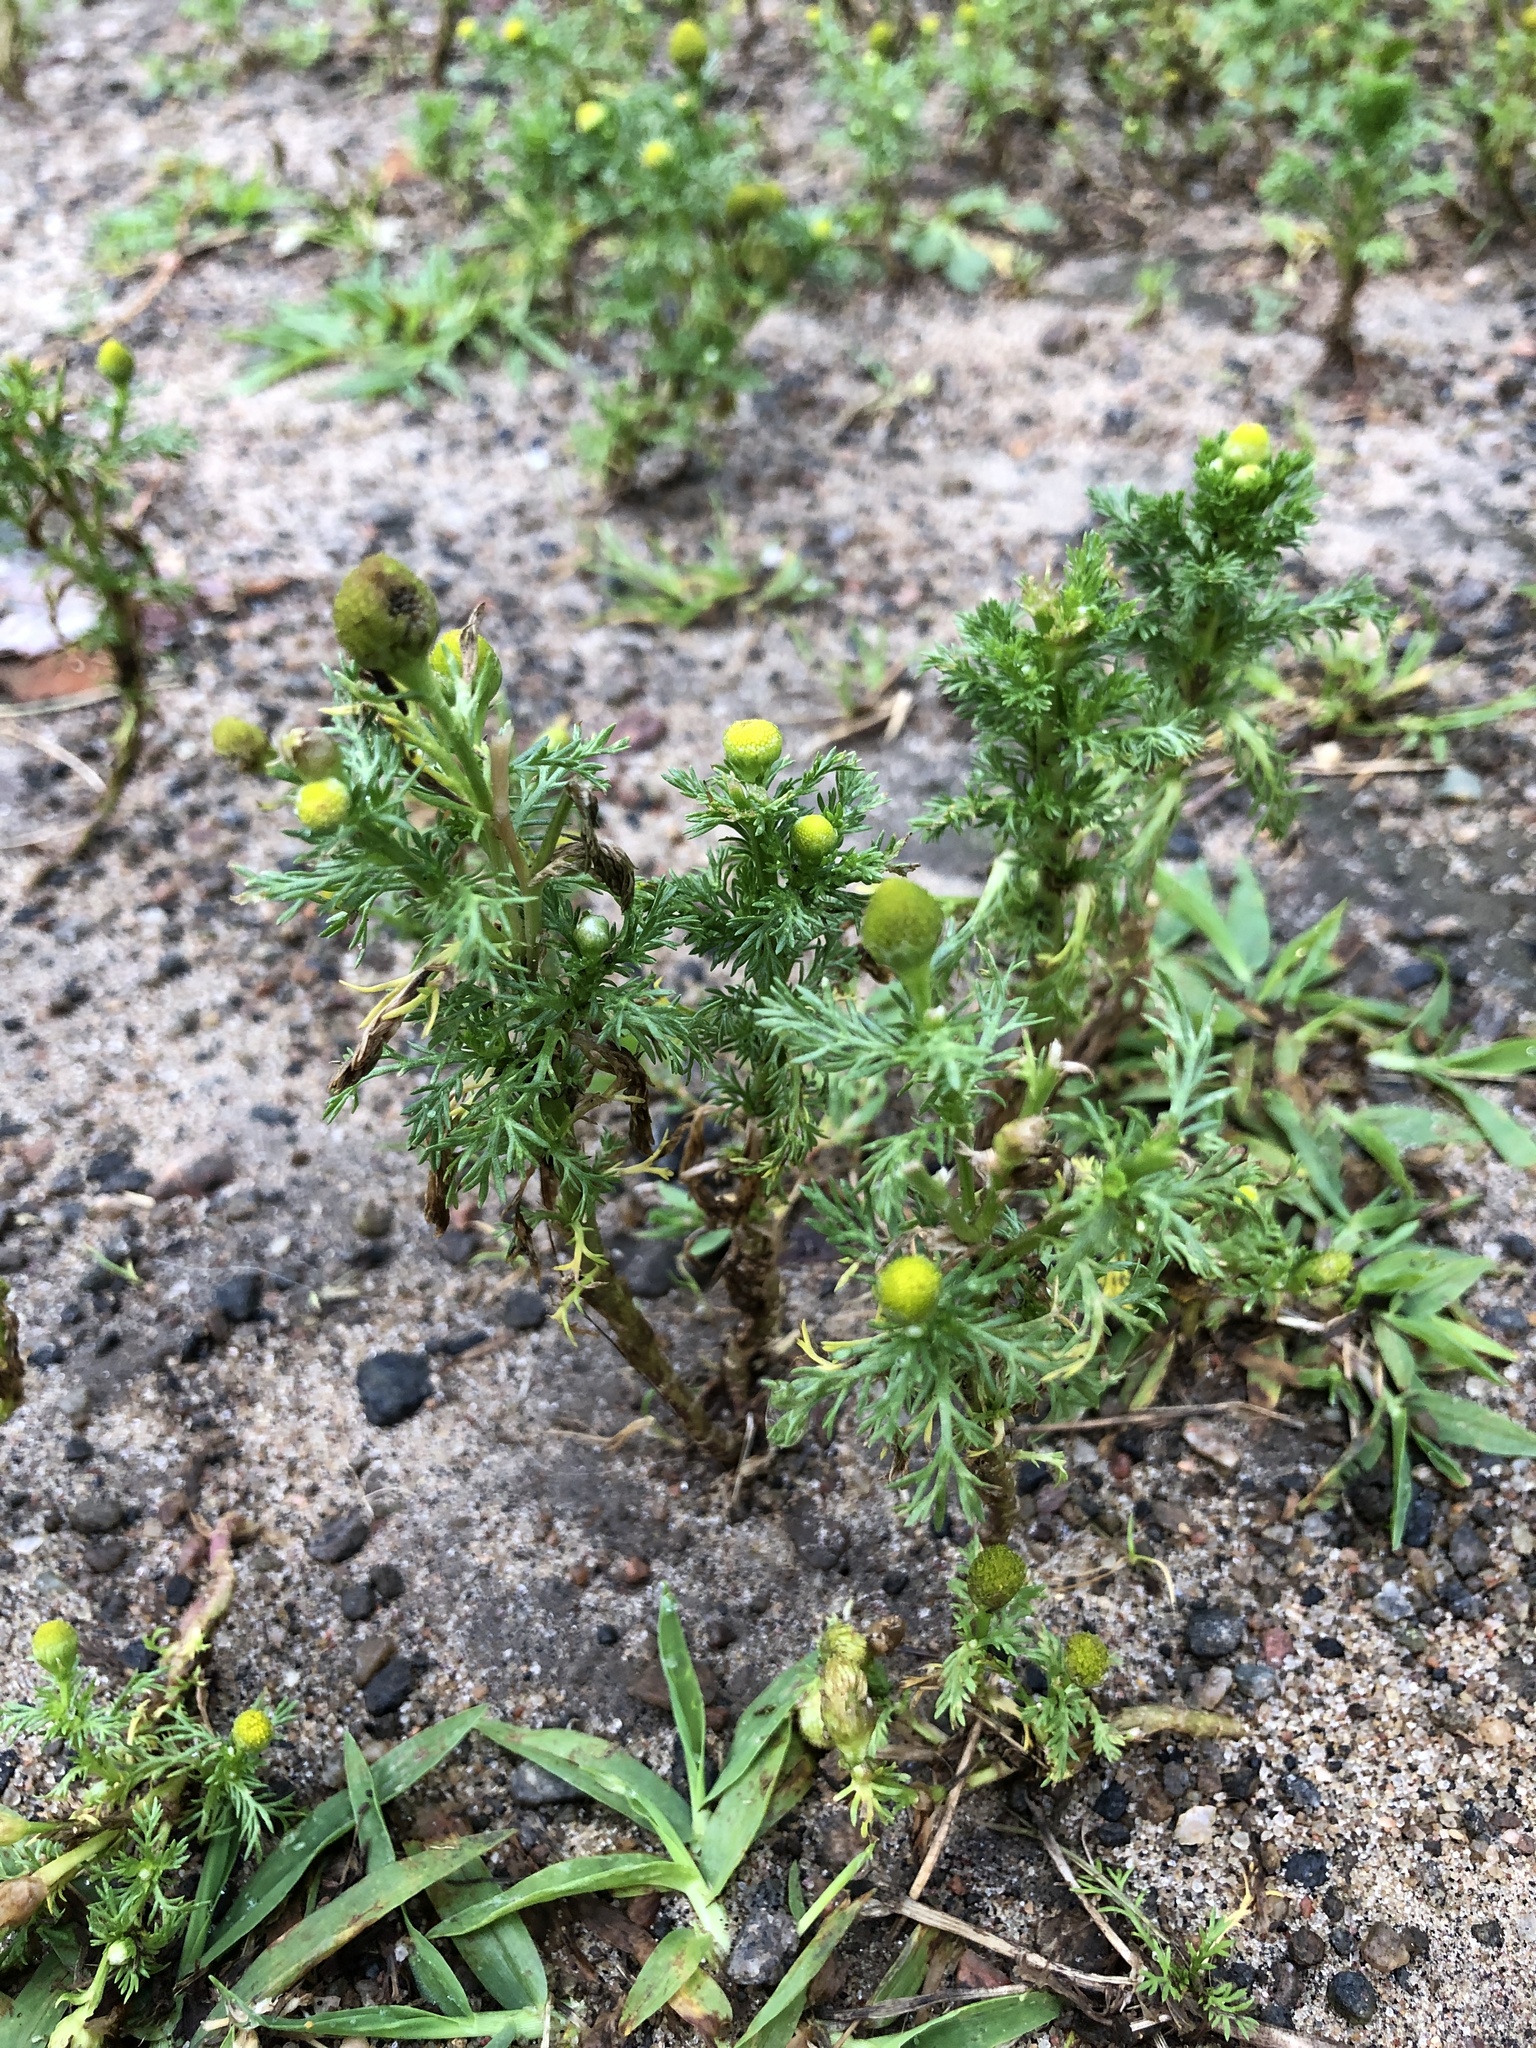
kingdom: Plantae
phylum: Tracheophyta
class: Magnoliopsida
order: Asterales
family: Asteraceae
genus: Matricaria
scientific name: Matricaria discoidea
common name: Disc mayweed
